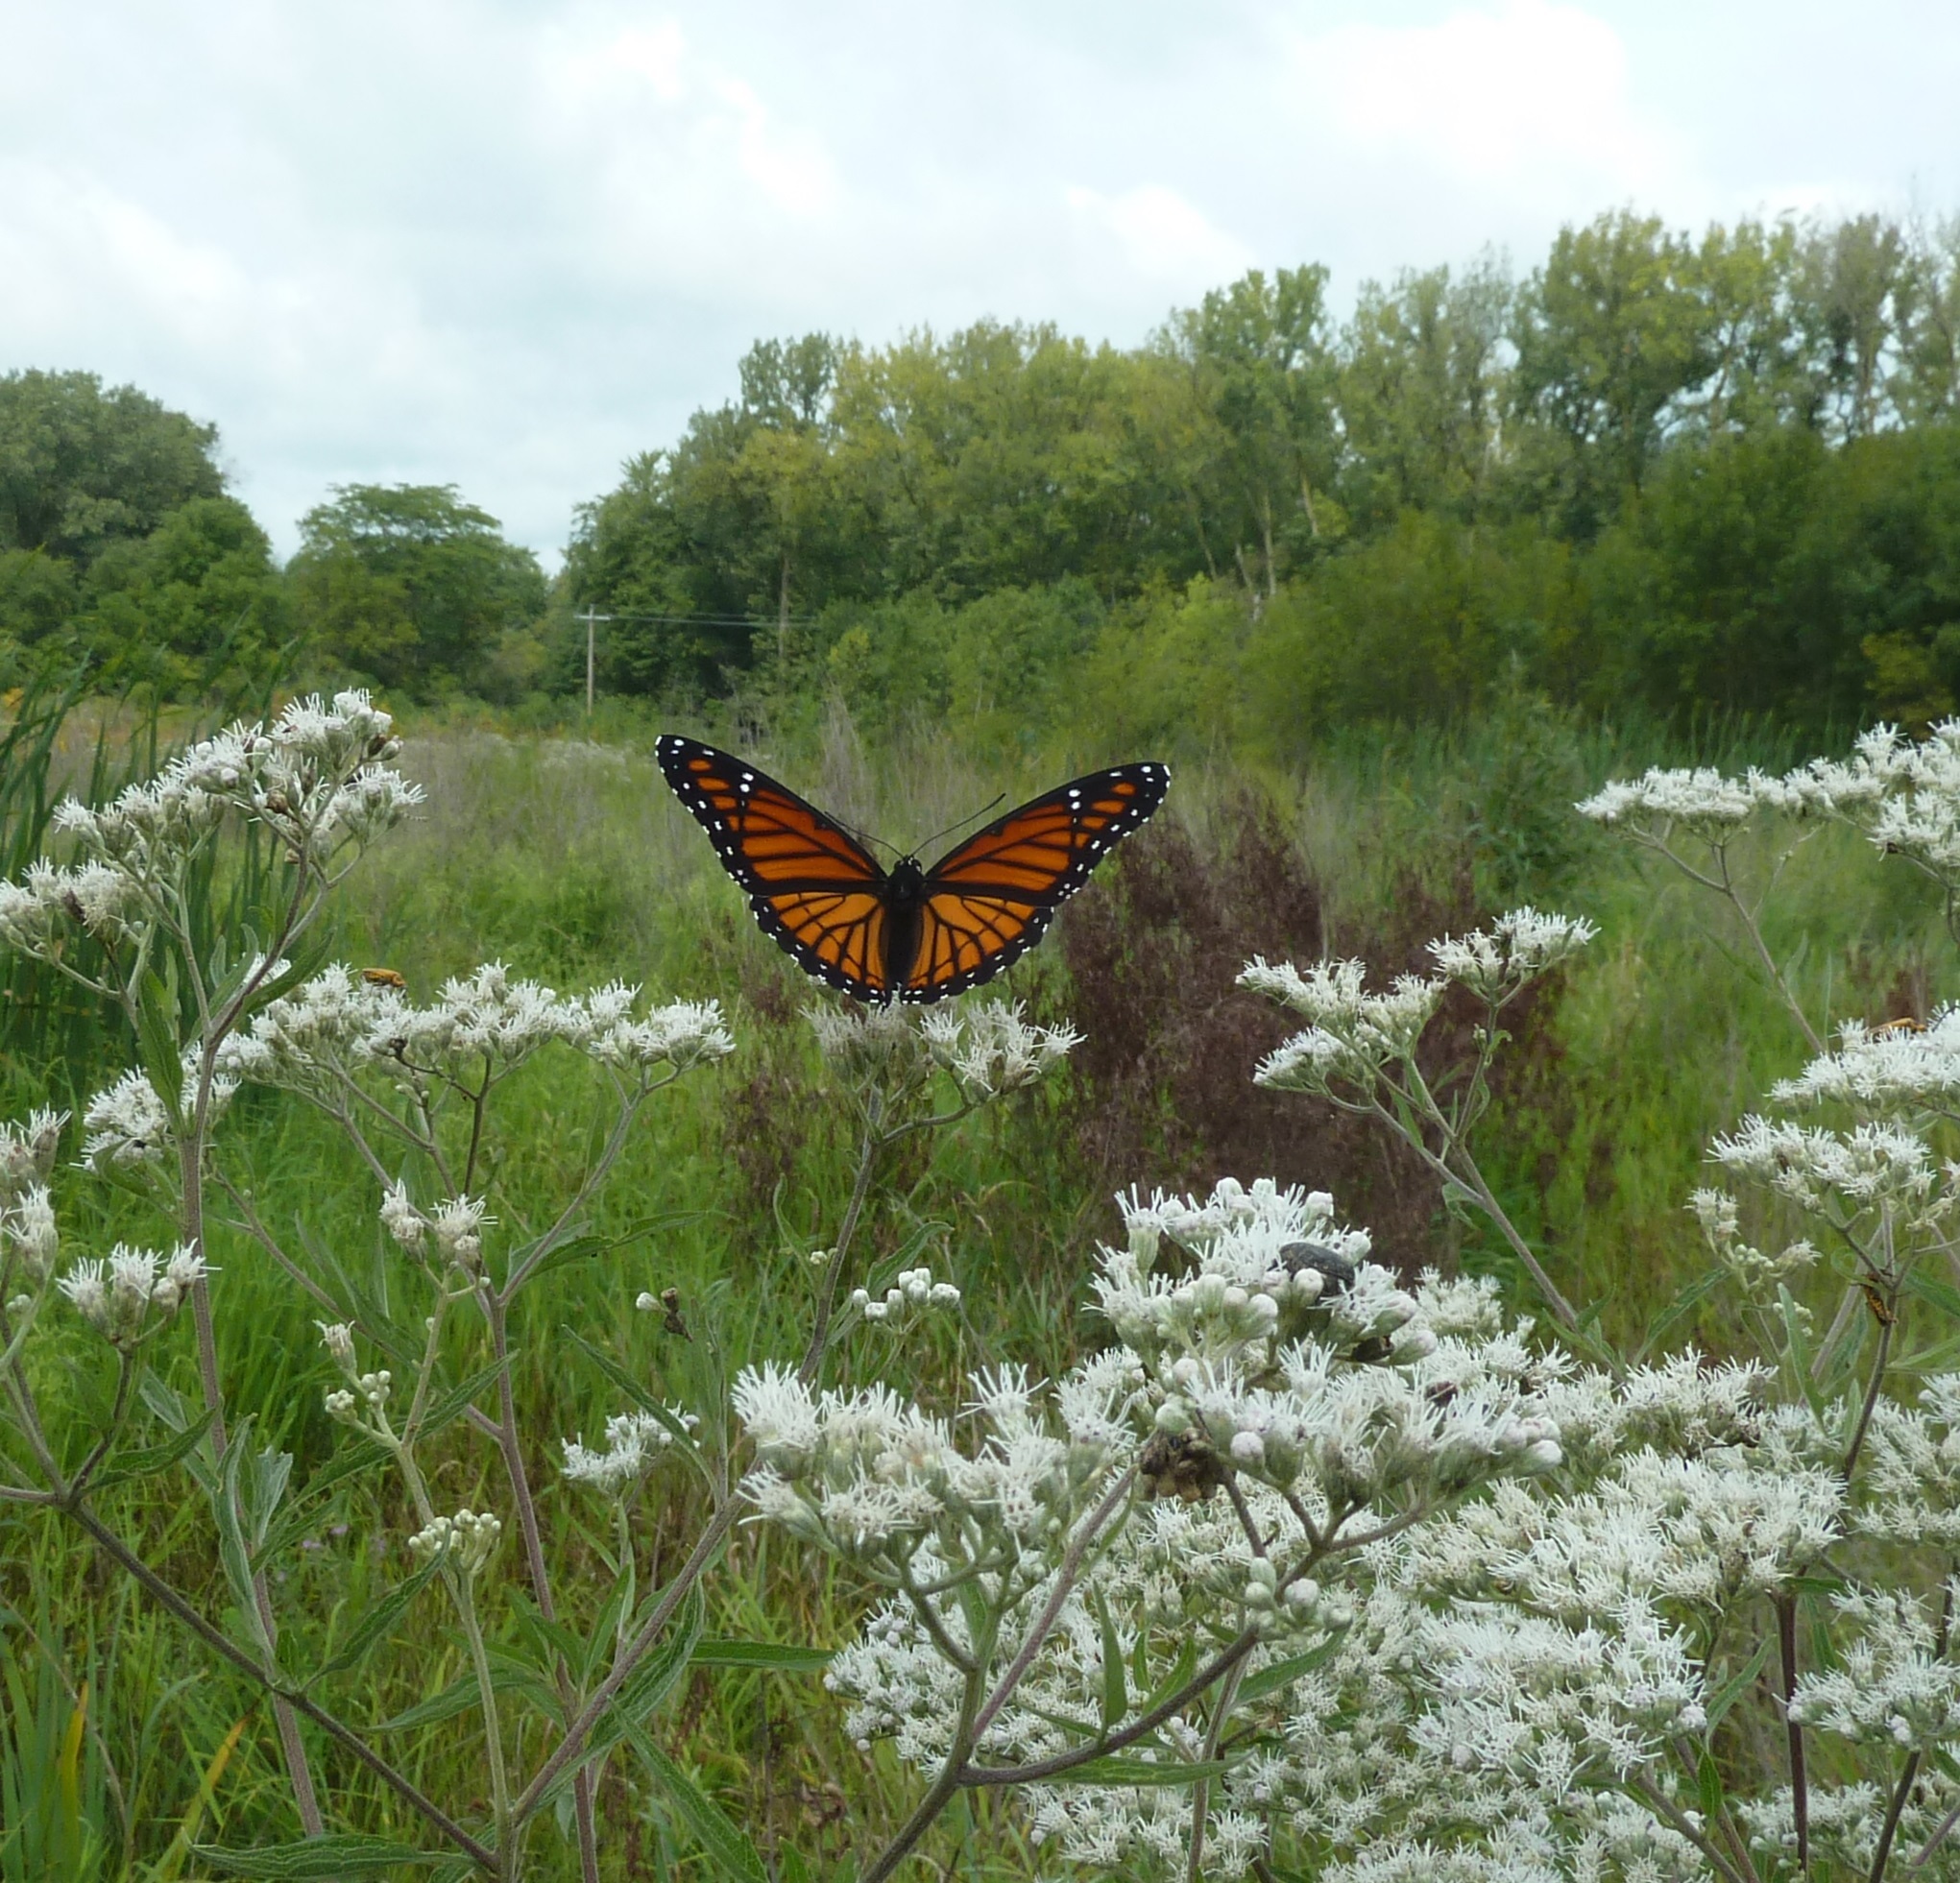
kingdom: Animalia
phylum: Arthropoda
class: Insecta
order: Lepidoptera
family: Nymphalidae
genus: Limenitis
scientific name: Limenitis archippus
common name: Viceroy
